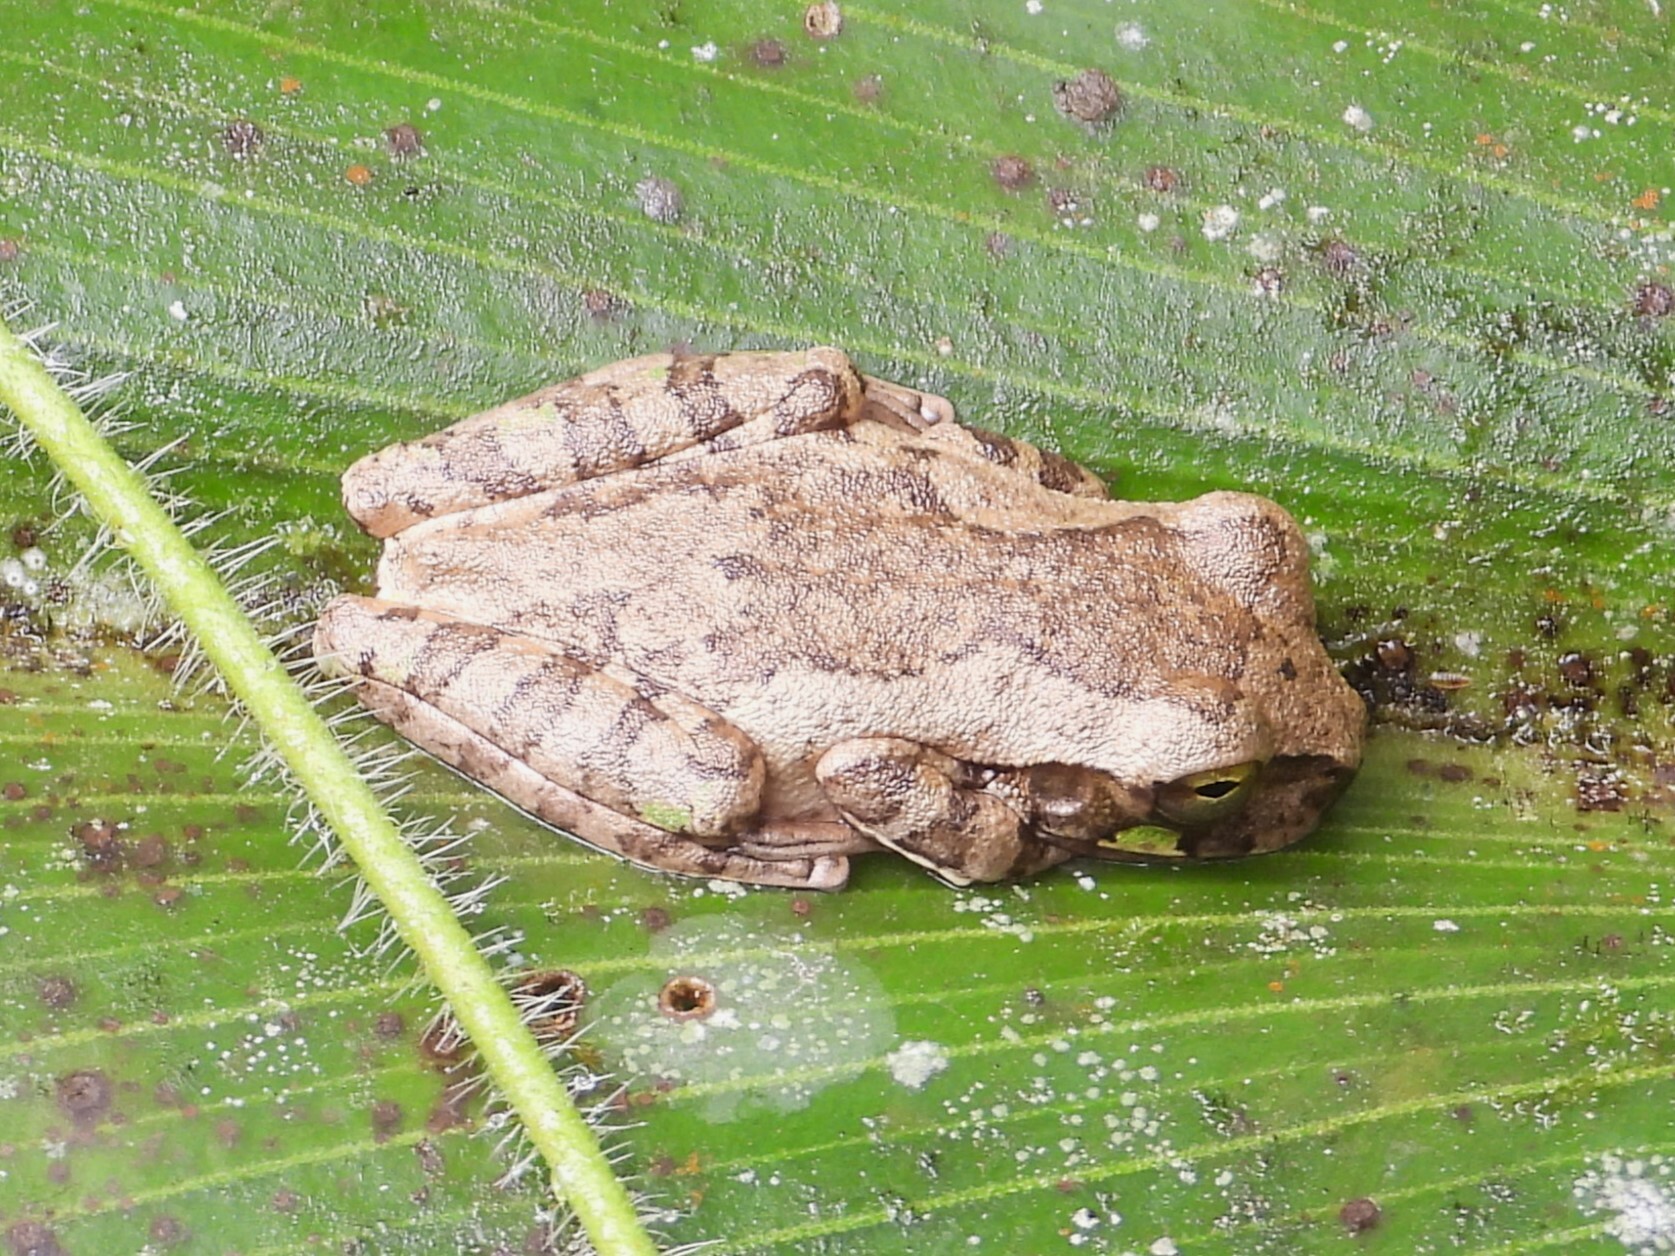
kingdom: Animalia
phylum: Chordata
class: Amphibia
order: Anura
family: Hylidae
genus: Smilisca
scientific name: Smilisca manisorum
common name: Masked tree frog
